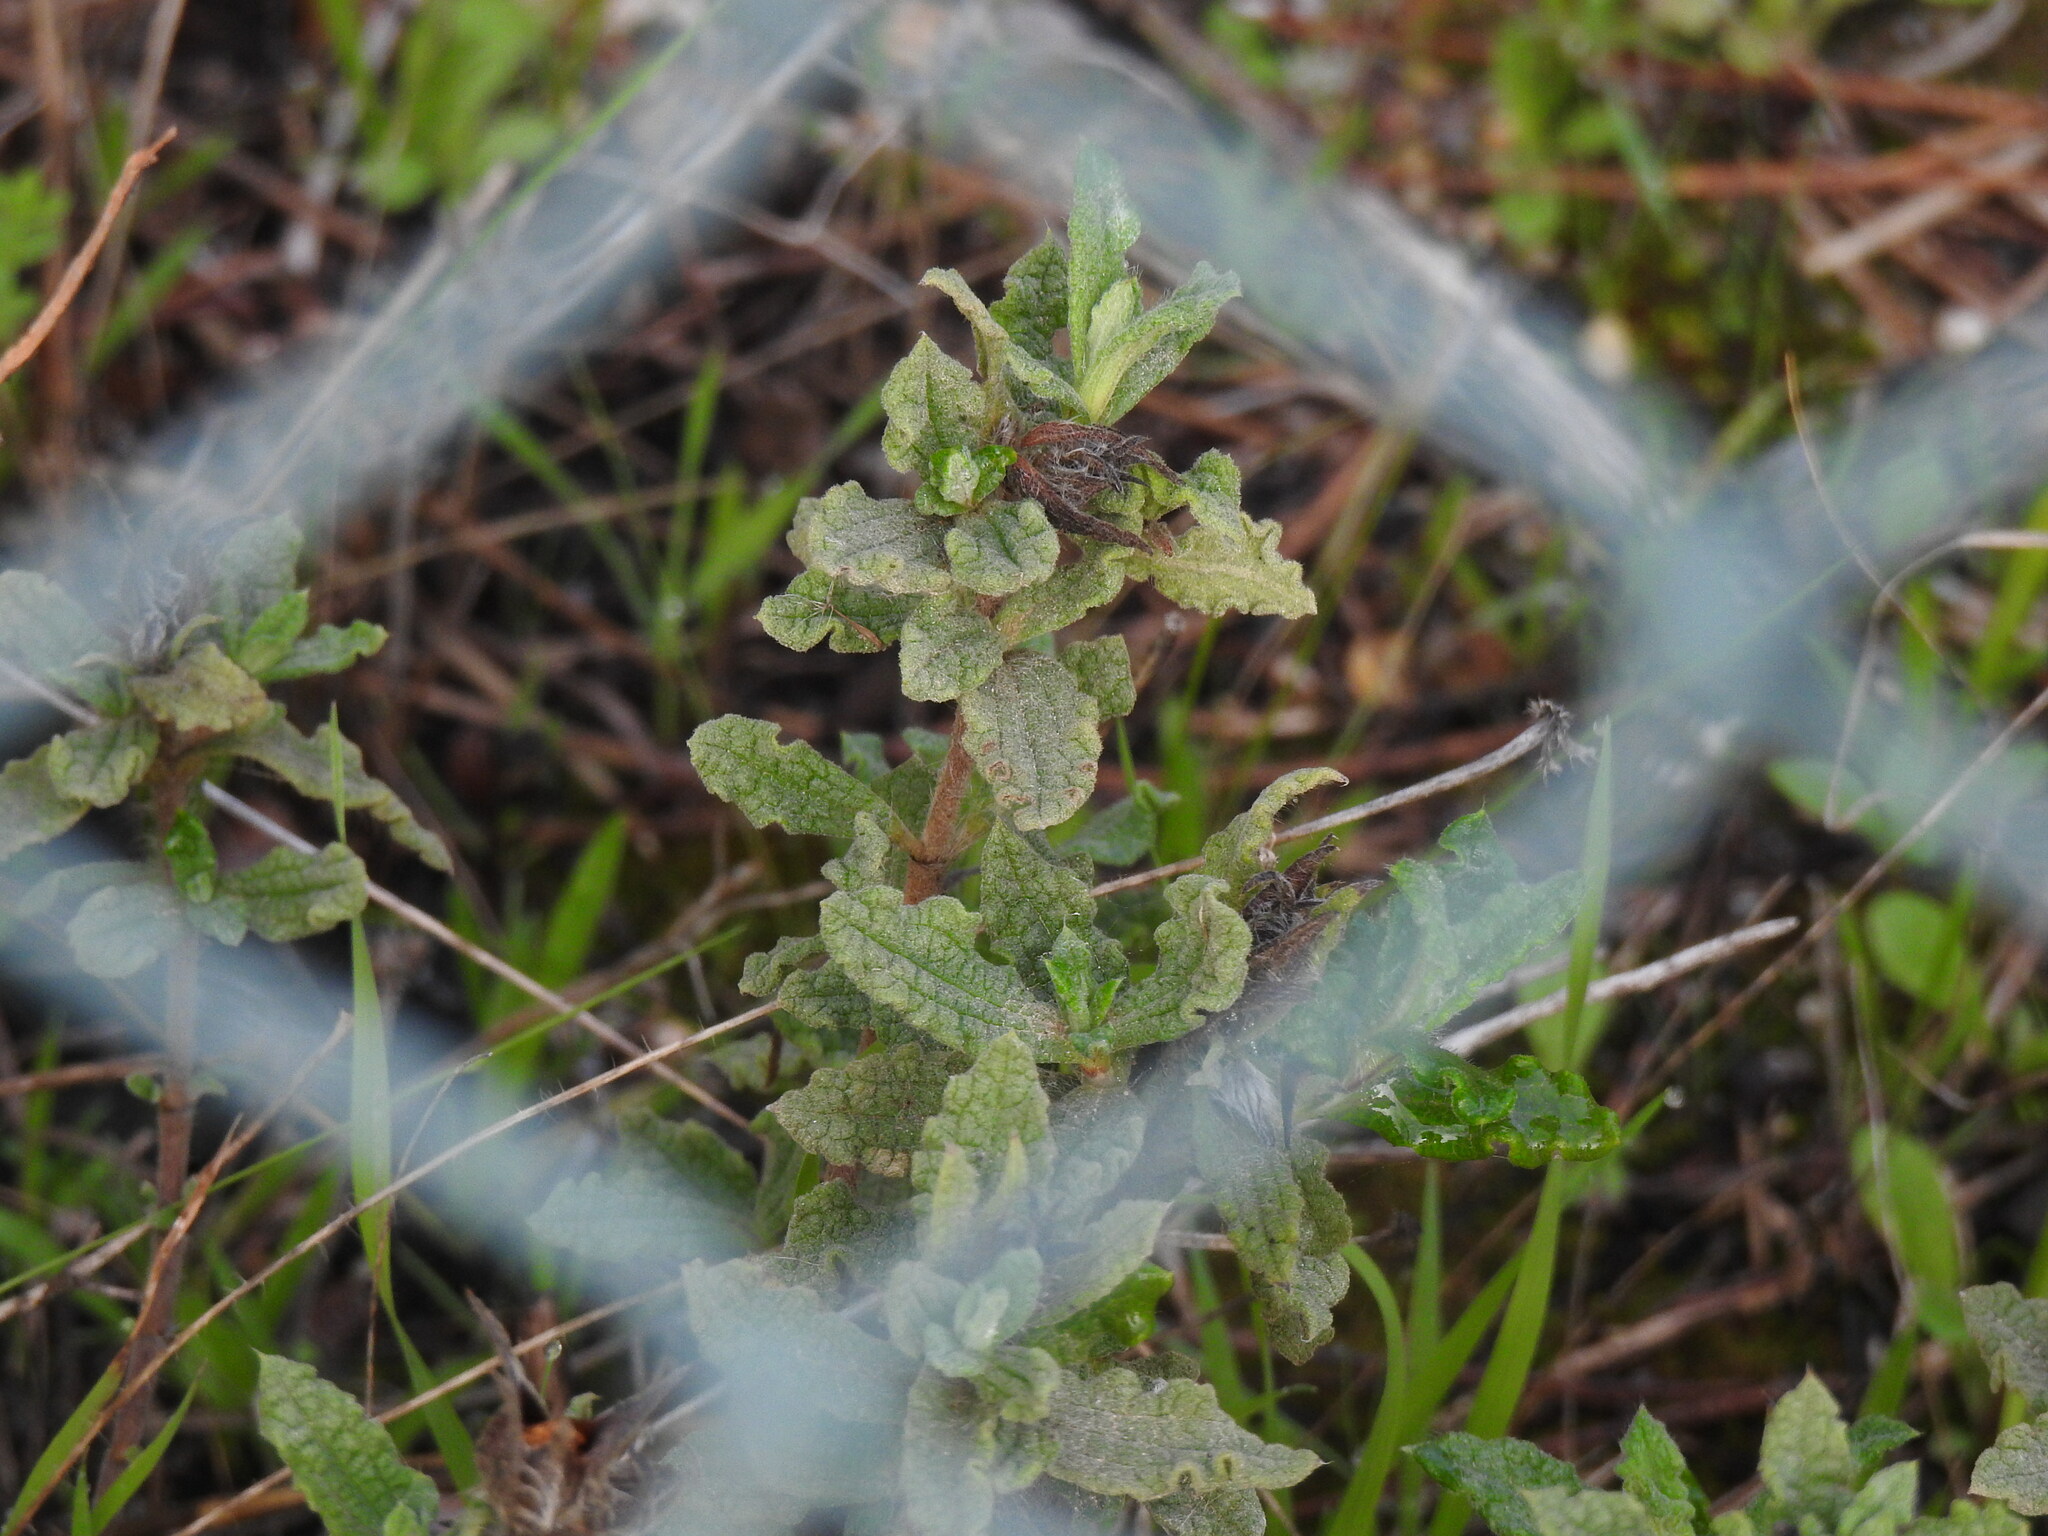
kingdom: Plantae
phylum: Tracheophyta
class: Magnoliopsida
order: Malvales
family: Cistaceae
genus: Cistus
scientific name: Cistus crispus
